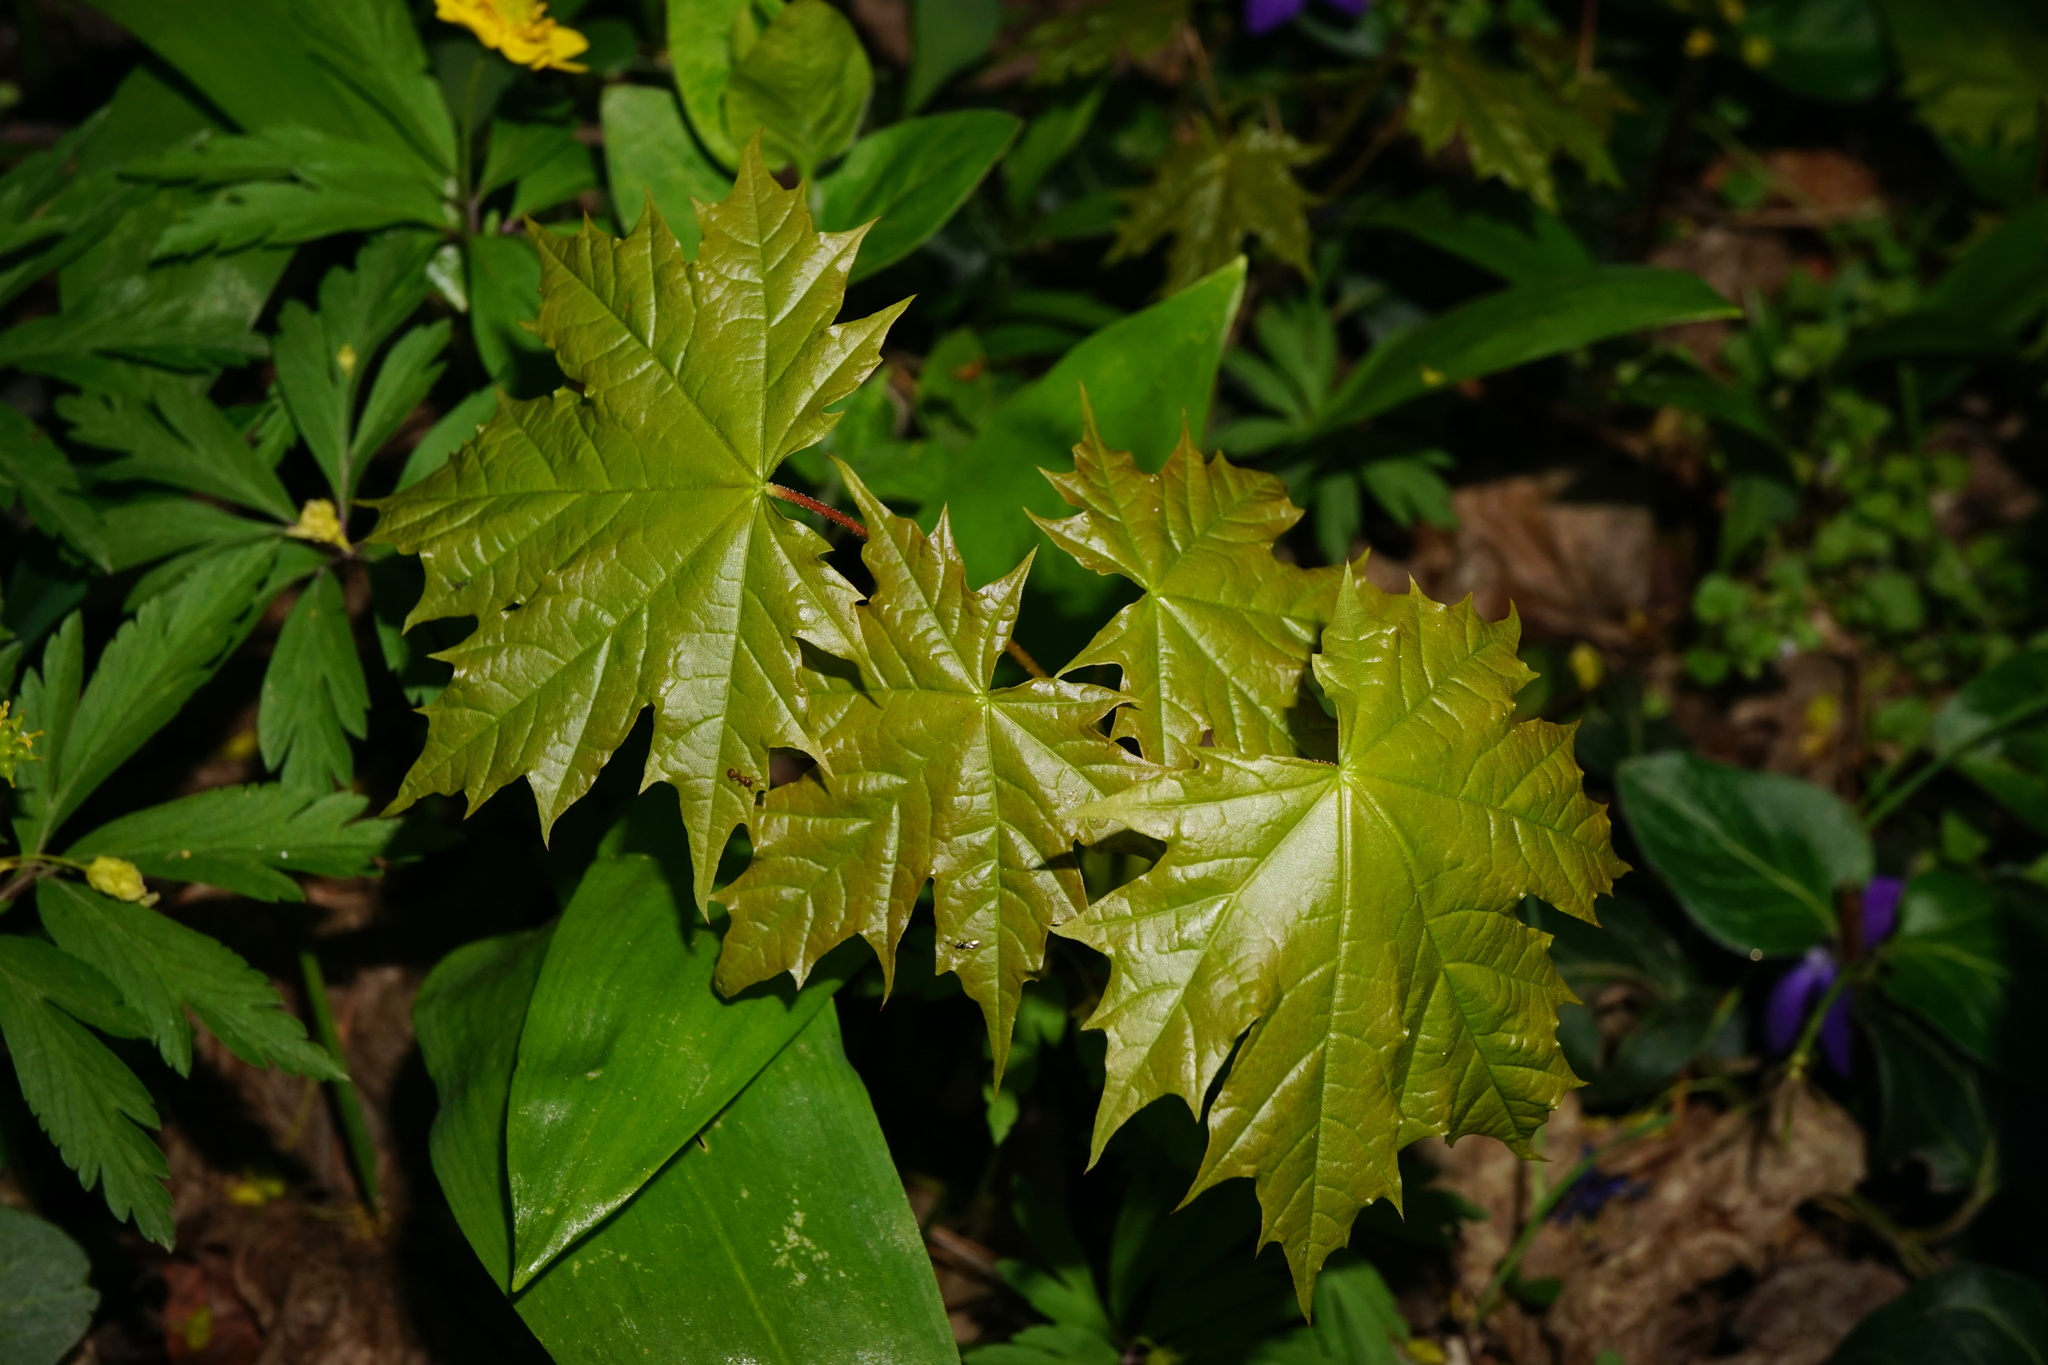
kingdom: Plantae
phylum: Tracheophyta
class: Magnoliopsida
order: Sapindales
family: Sapindaceae
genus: Acer
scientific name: Acer platanoides
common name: Norway maple
